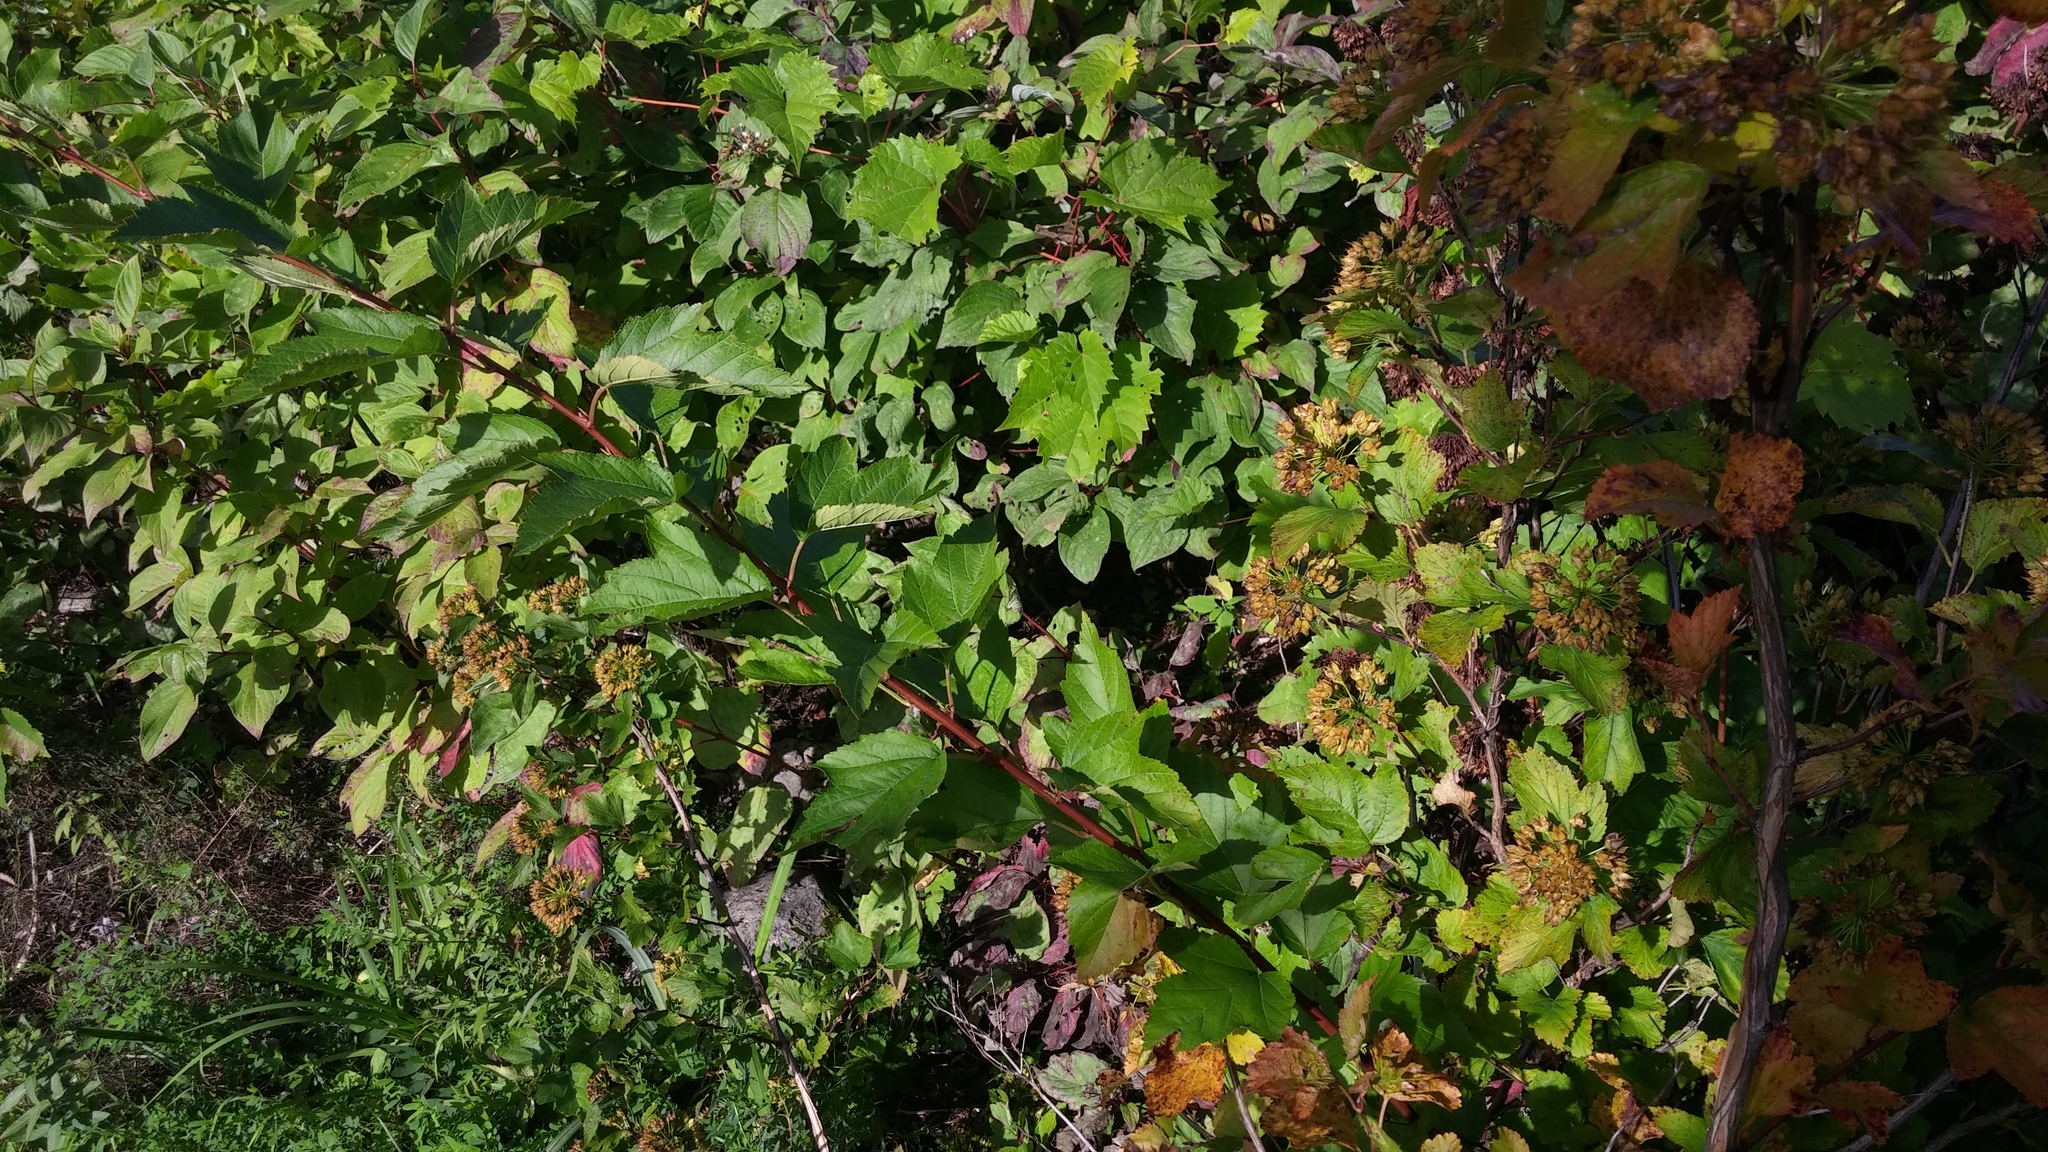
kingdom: Plantae
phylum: Tracheophyta
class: Magnoliopsida
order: Rosales
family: Rosaceae
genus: Physocarpus
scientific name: Physocarpus opulifolius
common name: Ninebark
